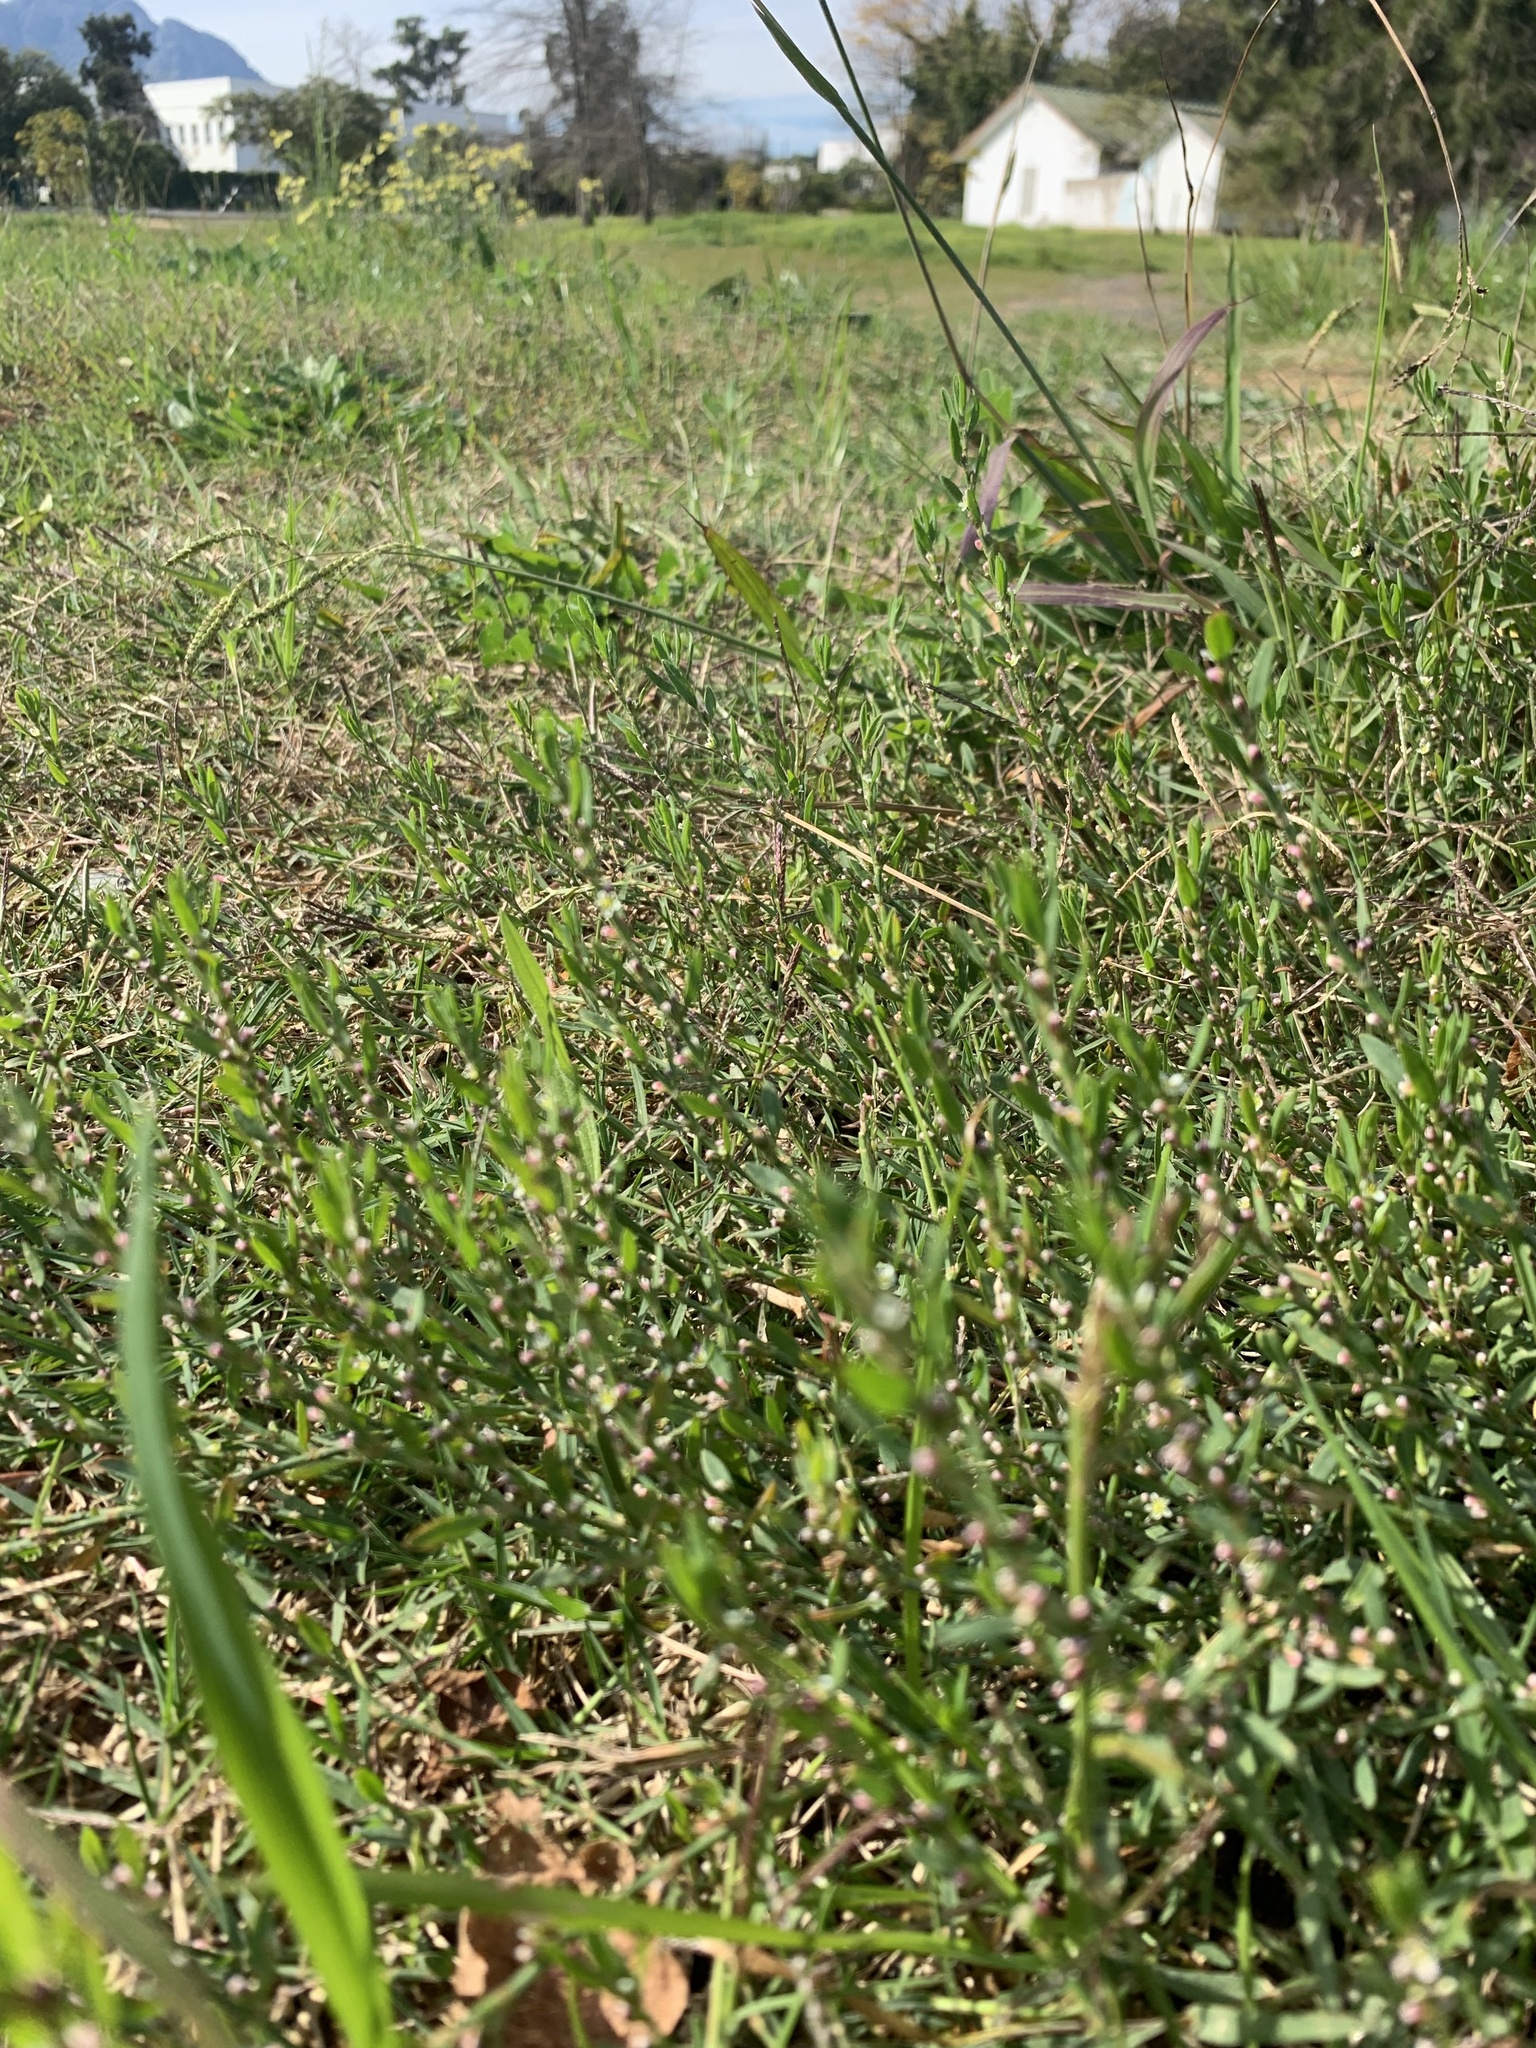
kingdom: Plantae
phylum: Tracheophyta
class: Magnoliopsida
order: Caryophyllales
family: Polygonaceae
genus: Polygonum
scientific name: Polygonum aviculare
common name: Prostrate knotweed
